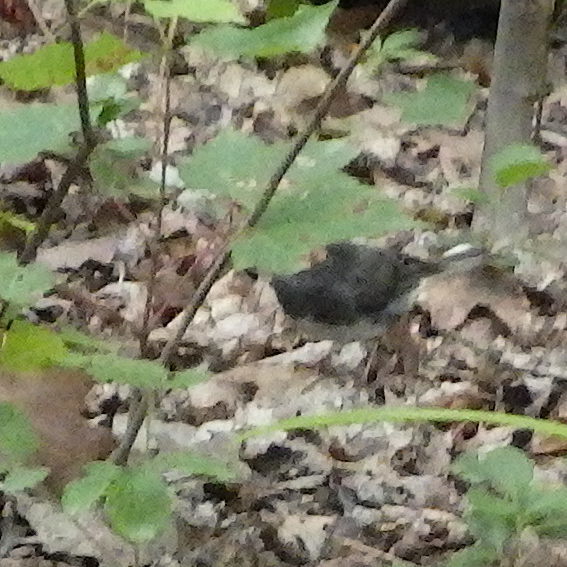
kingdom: Animalia
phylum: Chordata
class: Aves
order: Passeriformes
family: Passerellidae
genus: Junco
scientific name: Junco hyemalis
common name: Dark-eyed junco
